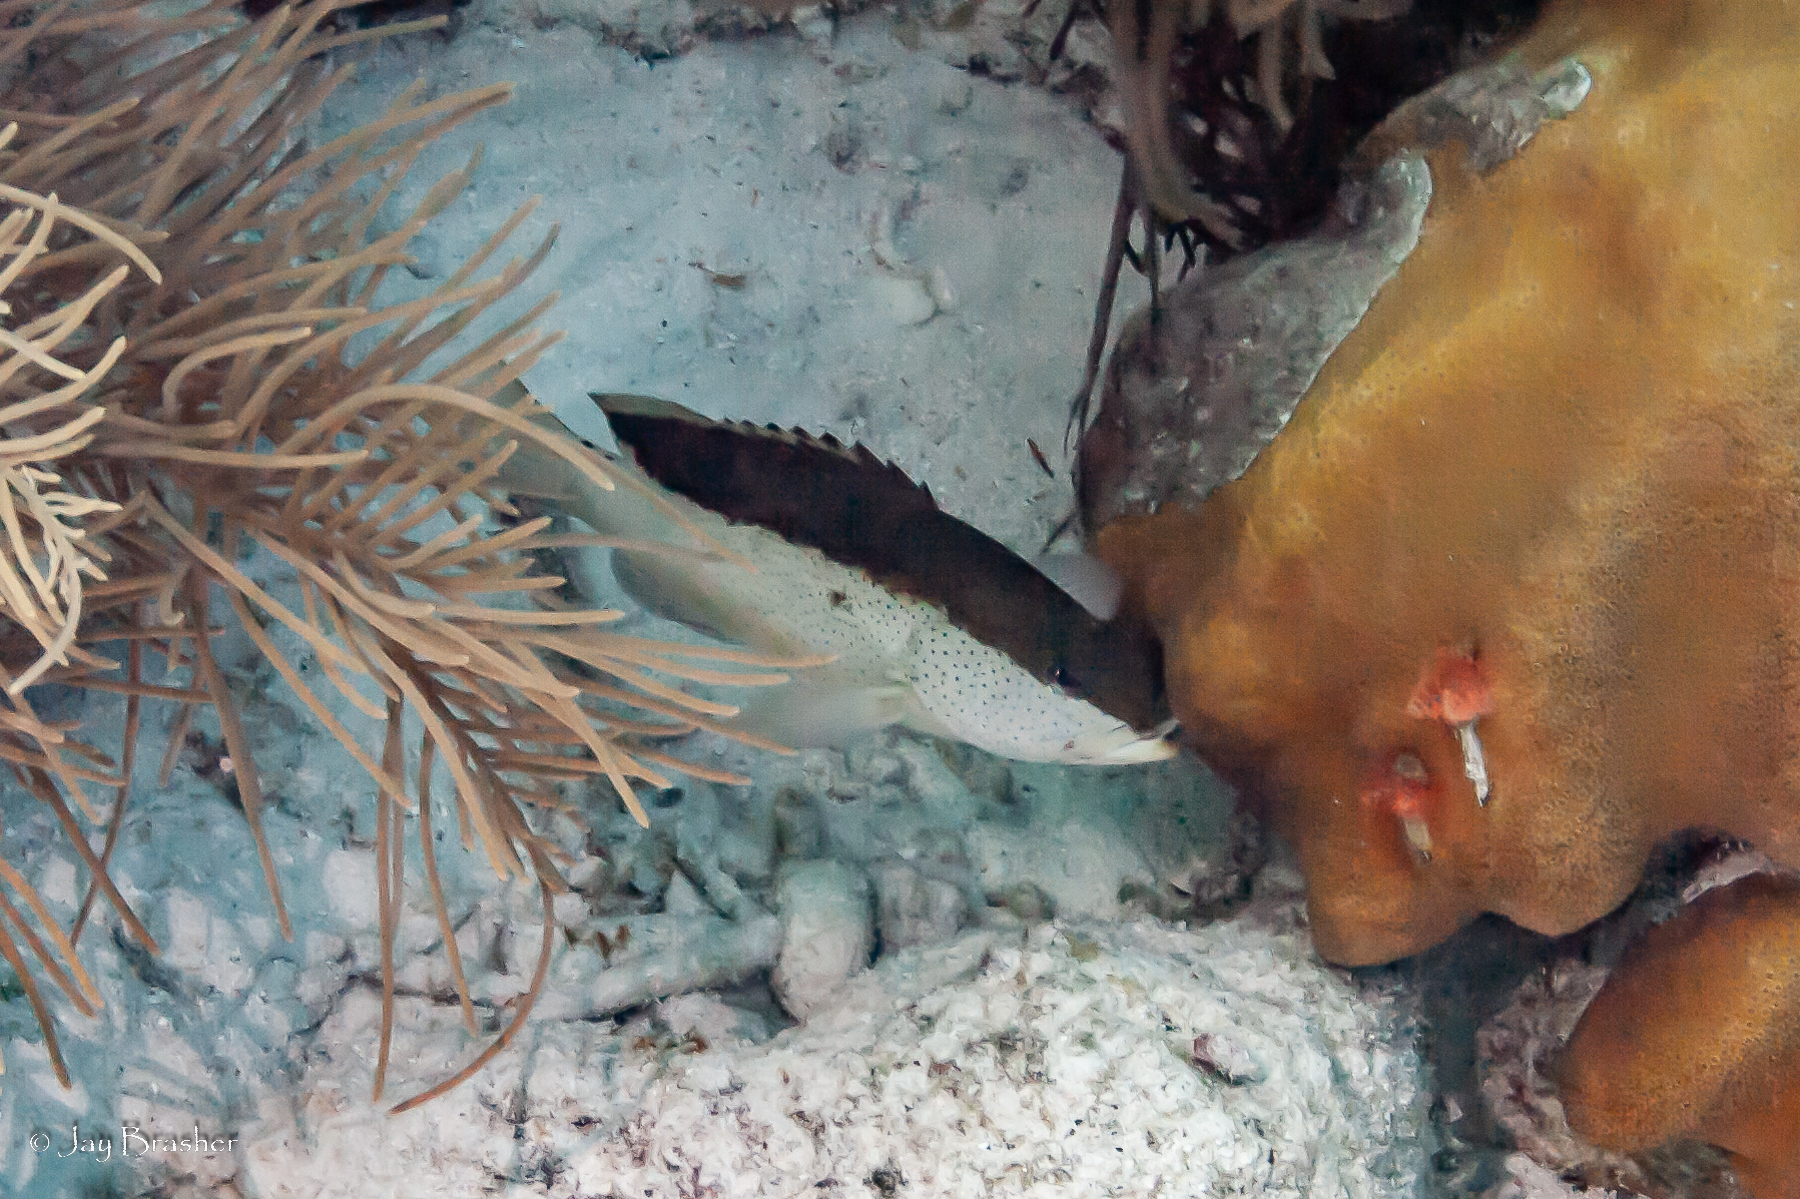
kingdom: Animalia
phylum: Chordata
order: Perciformes
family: Serranidae
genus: Cephalopholis
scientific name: Cephalopholis fulva
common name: Butterfish
